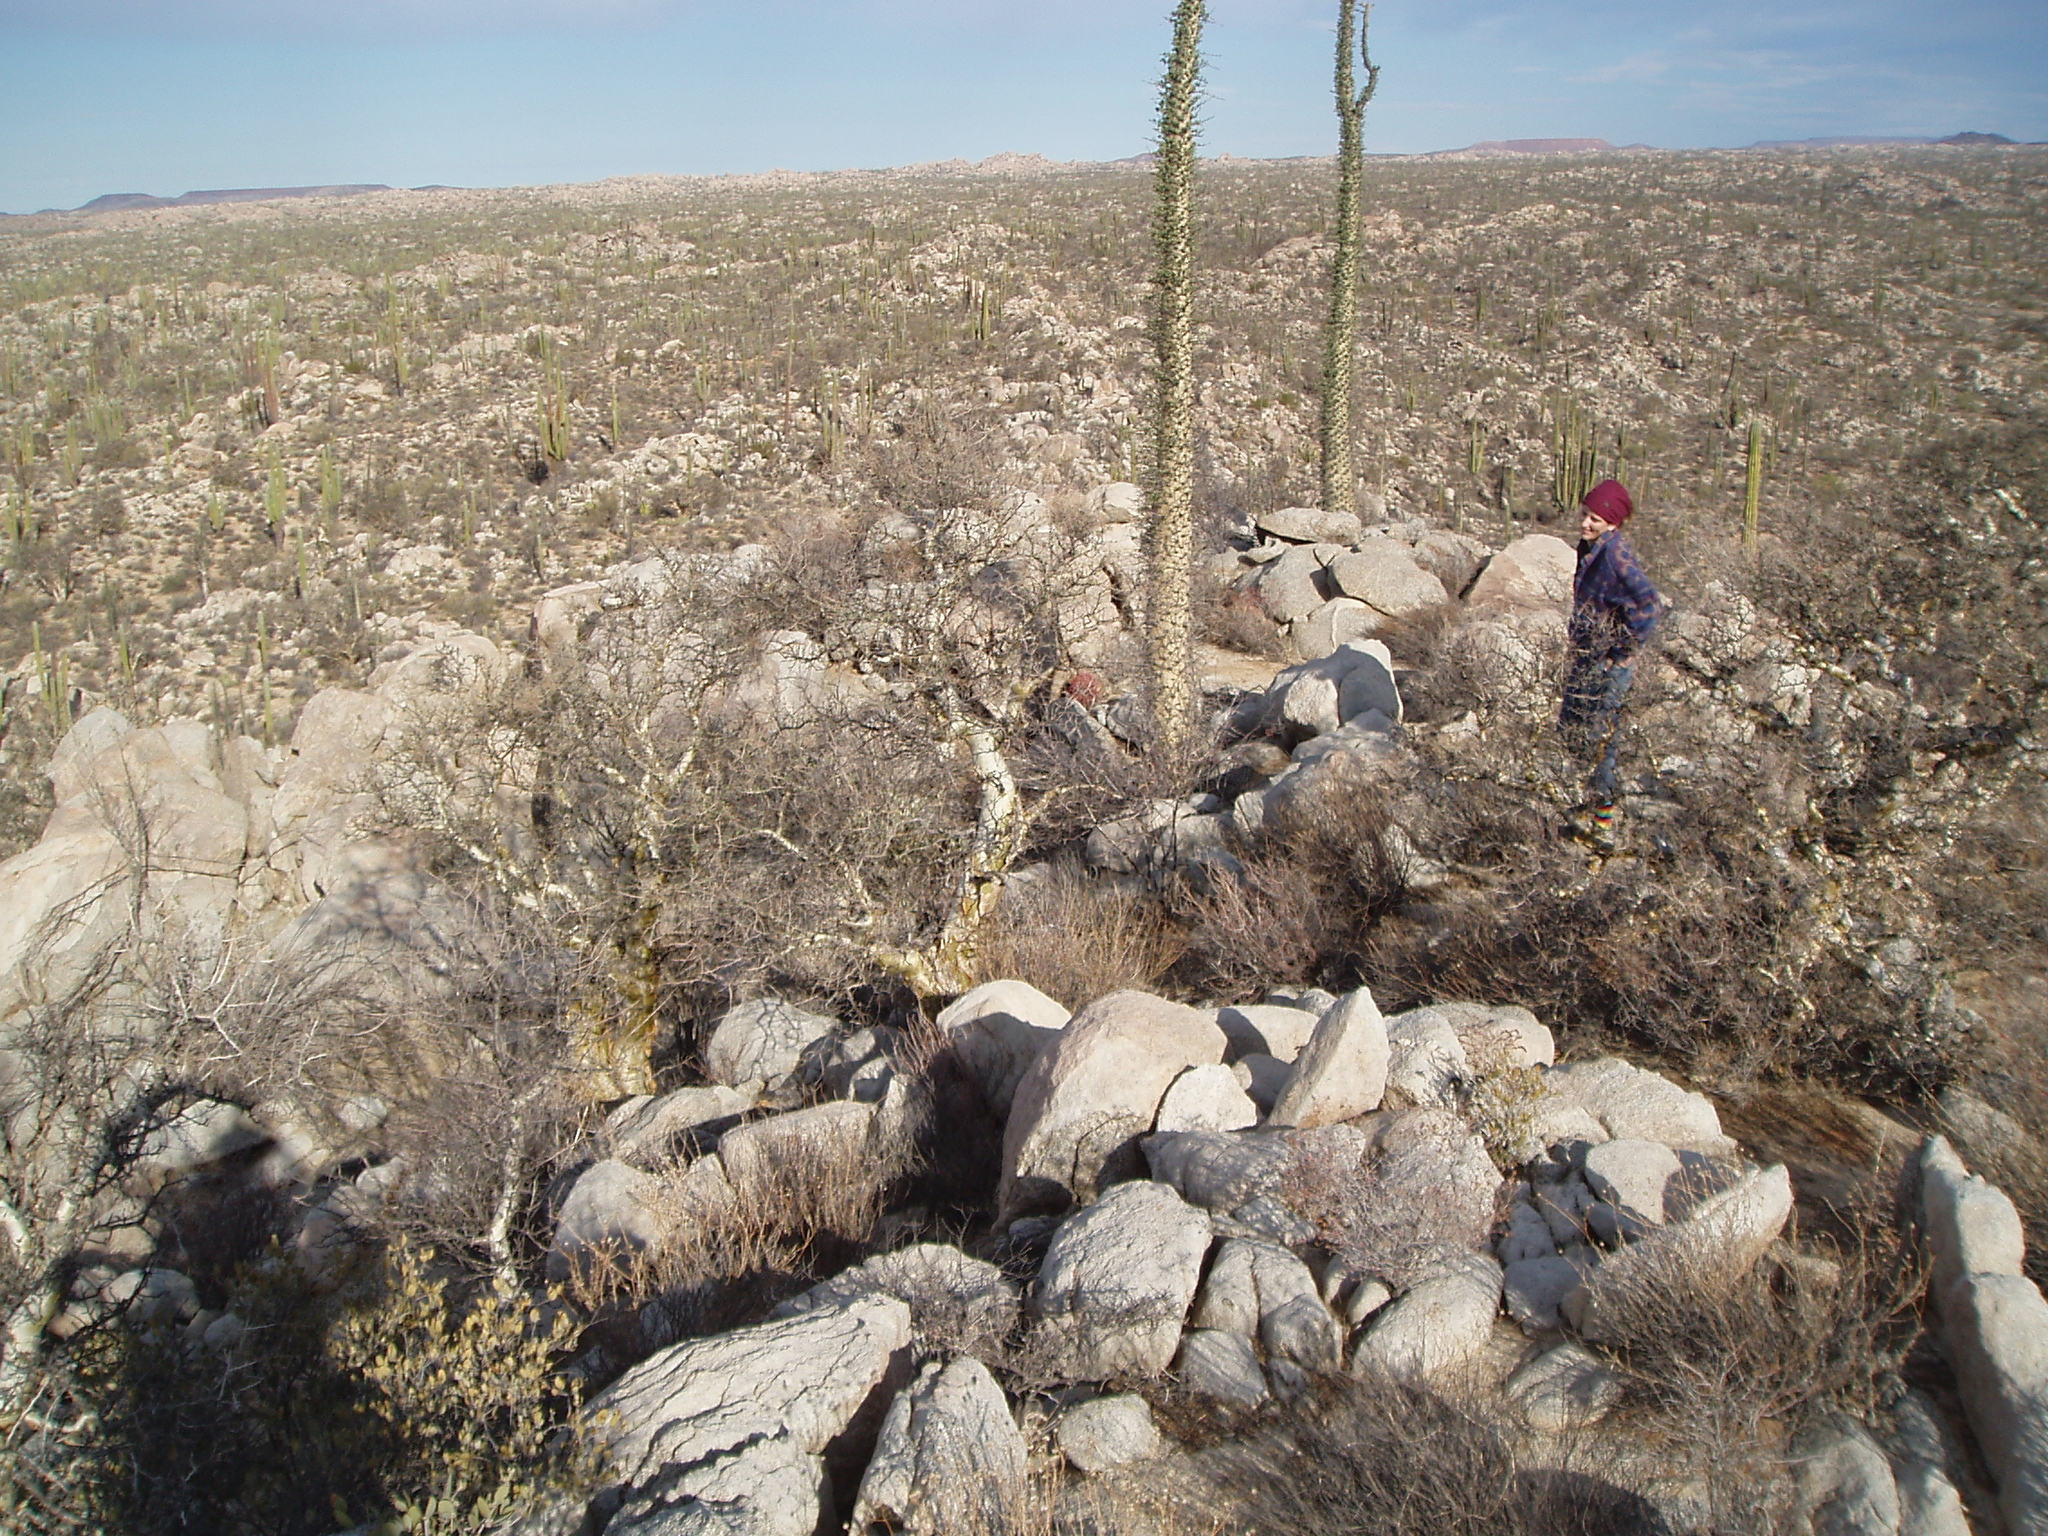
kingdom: Plantae
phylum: Tracheophyta
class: Magnoliopsida
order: Ericales
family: Fouquieriaceae
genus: Fouquieria
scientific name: Fouquieria columnaris
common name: Boojumtree
